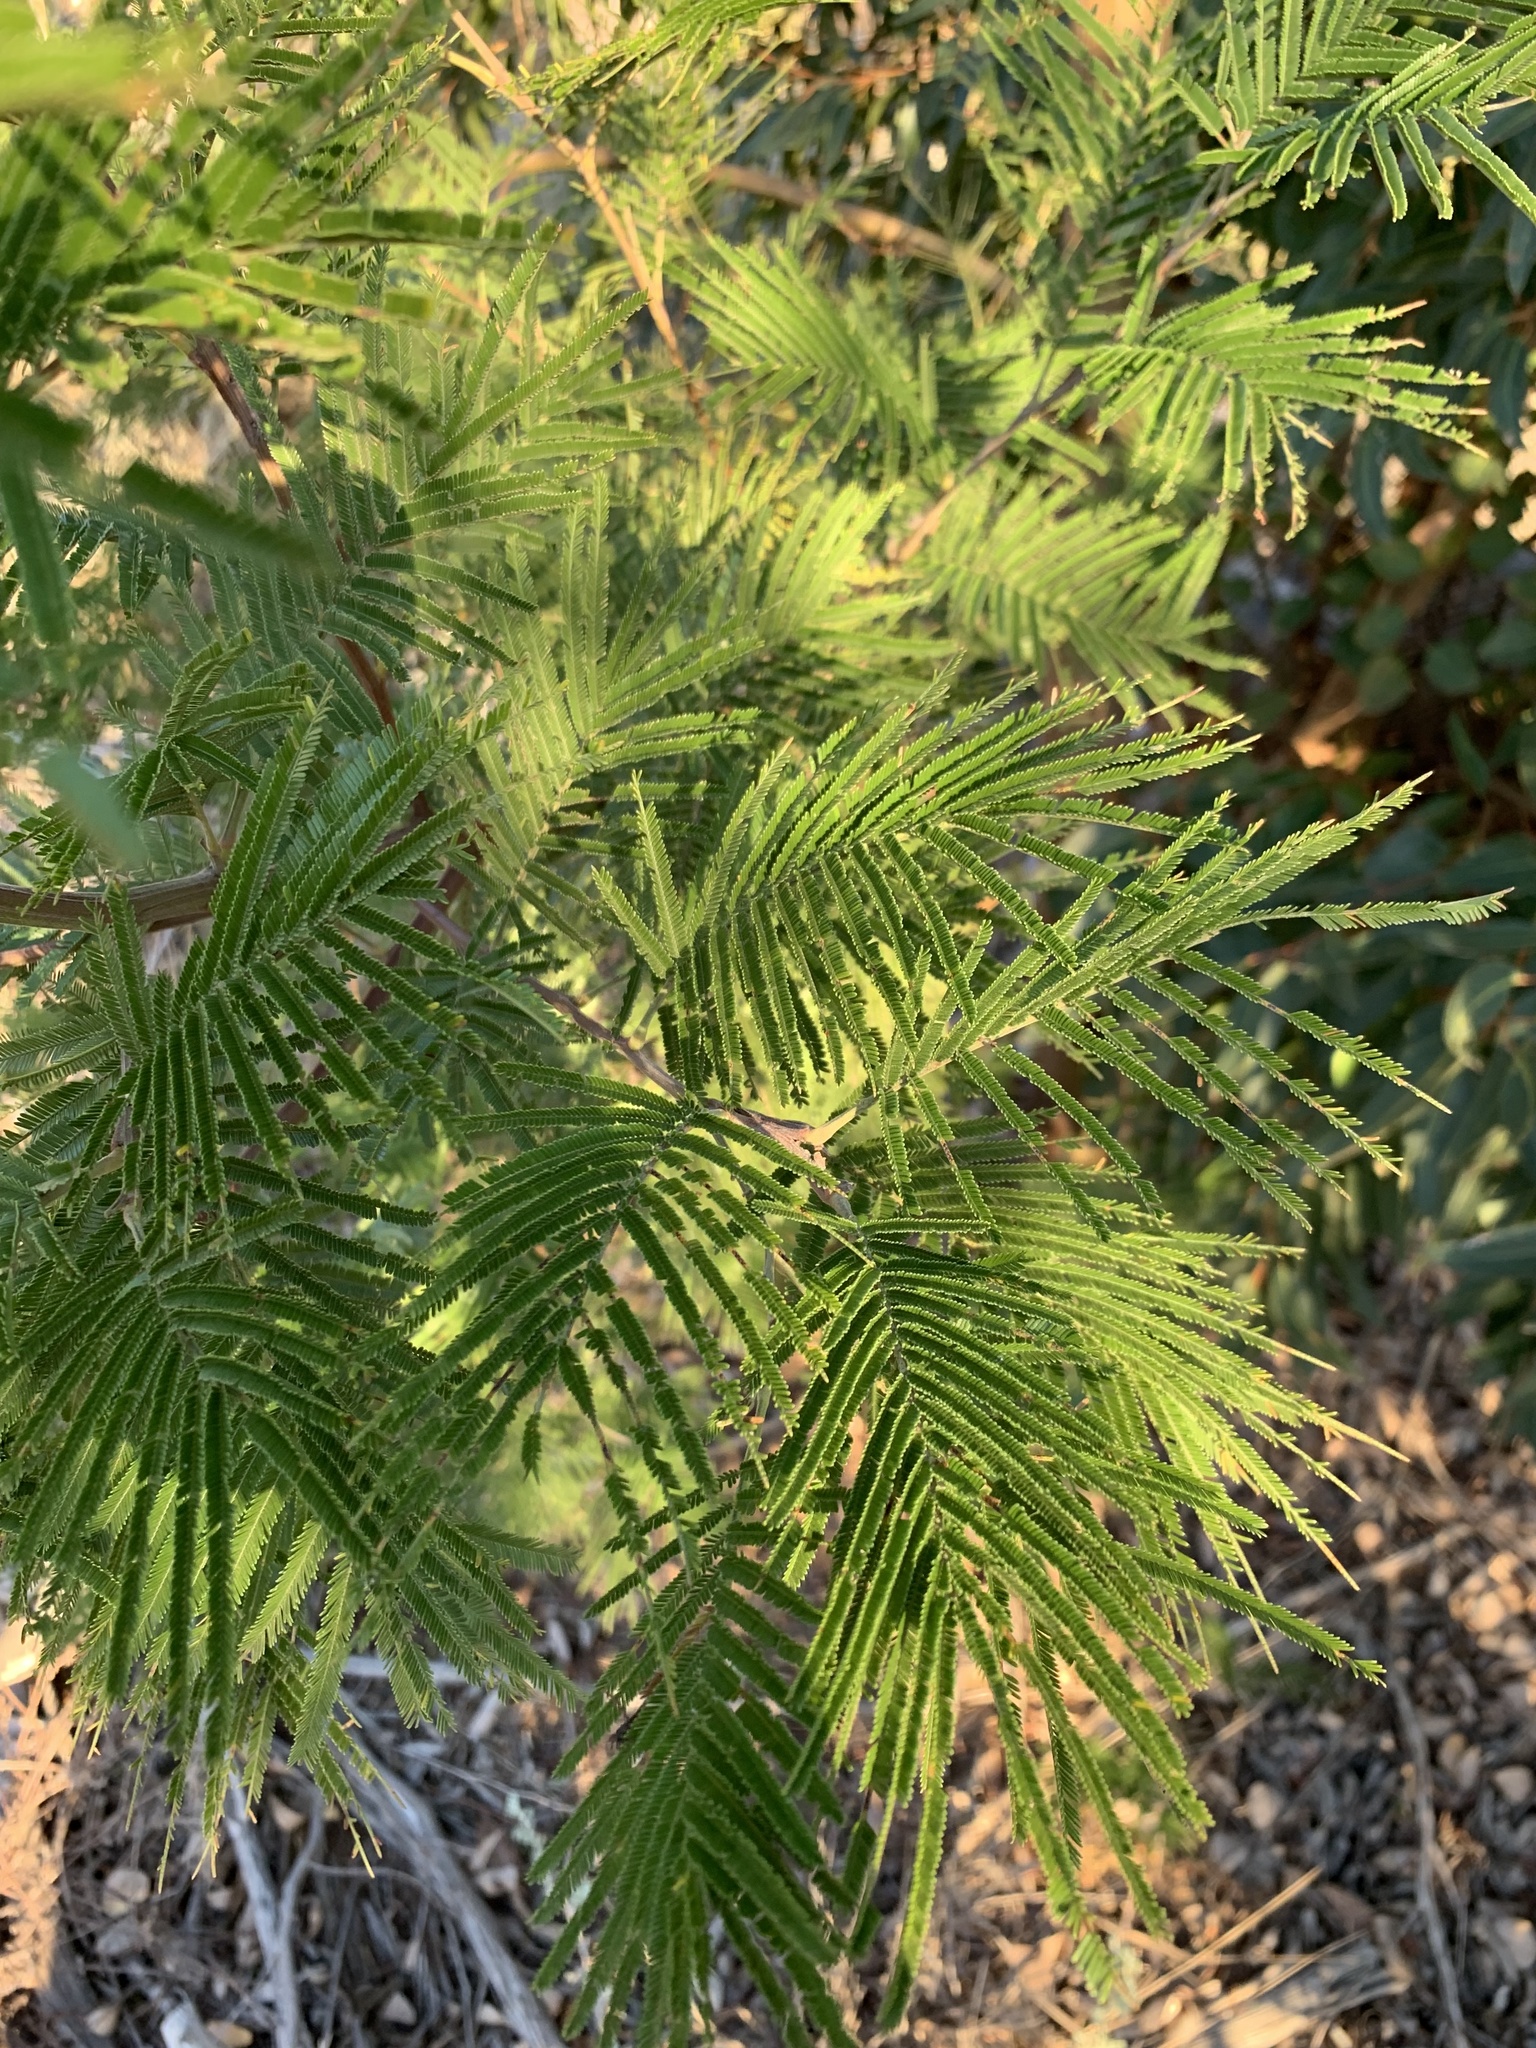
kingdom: Plantae
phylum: Tracheophyta
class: Magnoliopsida
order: Fabales
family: Fabaceae
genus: Acacia
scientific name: Acacia mearnsii
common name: Black wattle
